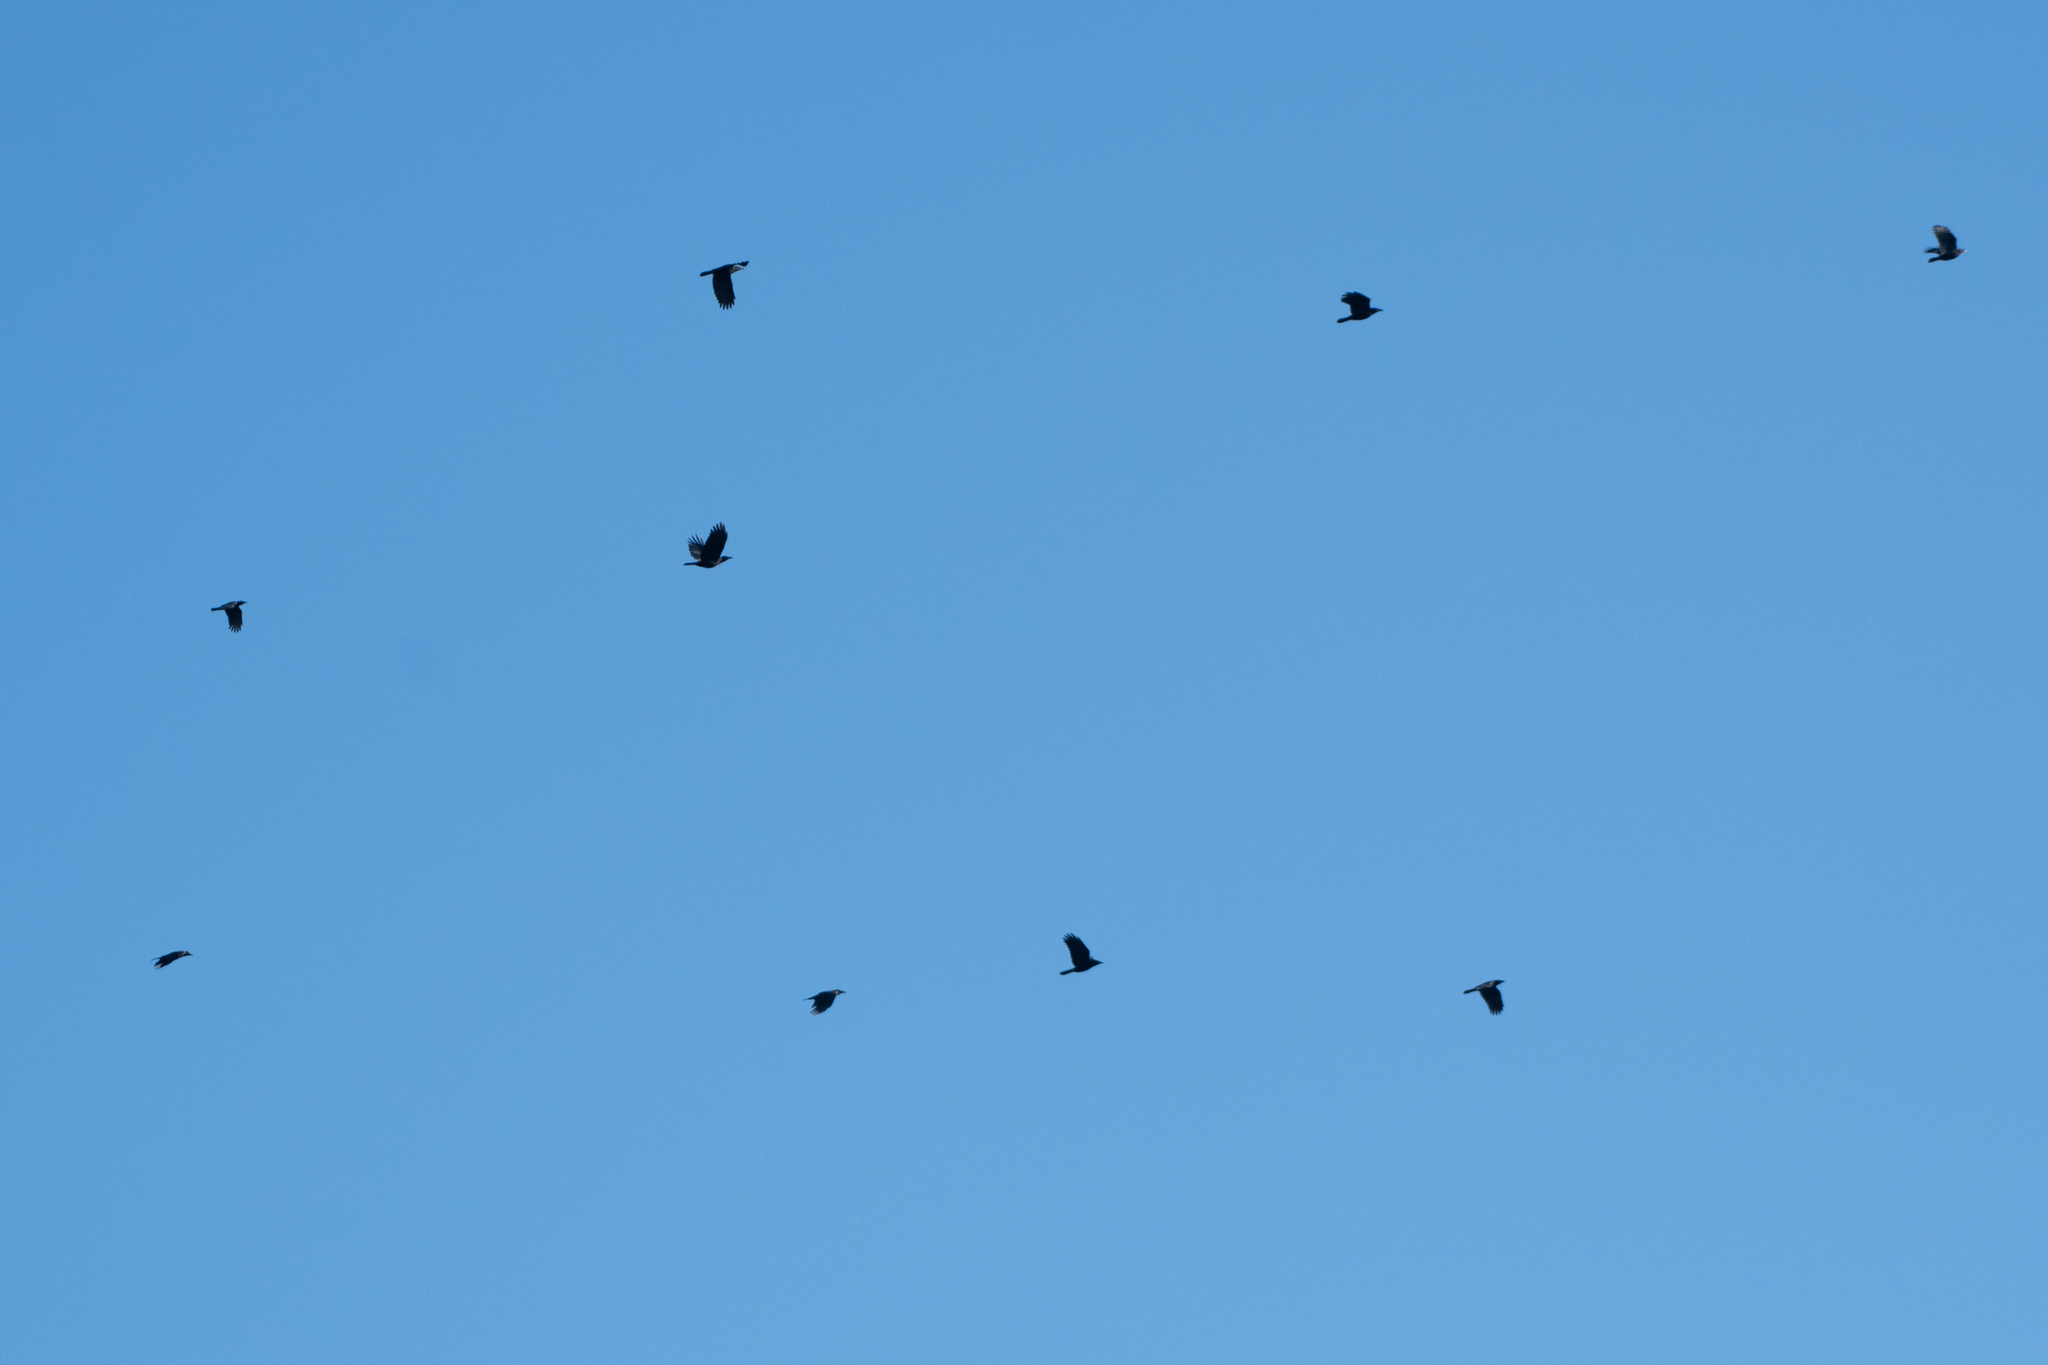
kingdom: Animalia
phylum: Chordata
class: Aves
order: Passeriformes
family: Corvidae
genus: Corvus
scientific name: Corvus brachyrhynchos
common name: American crow
